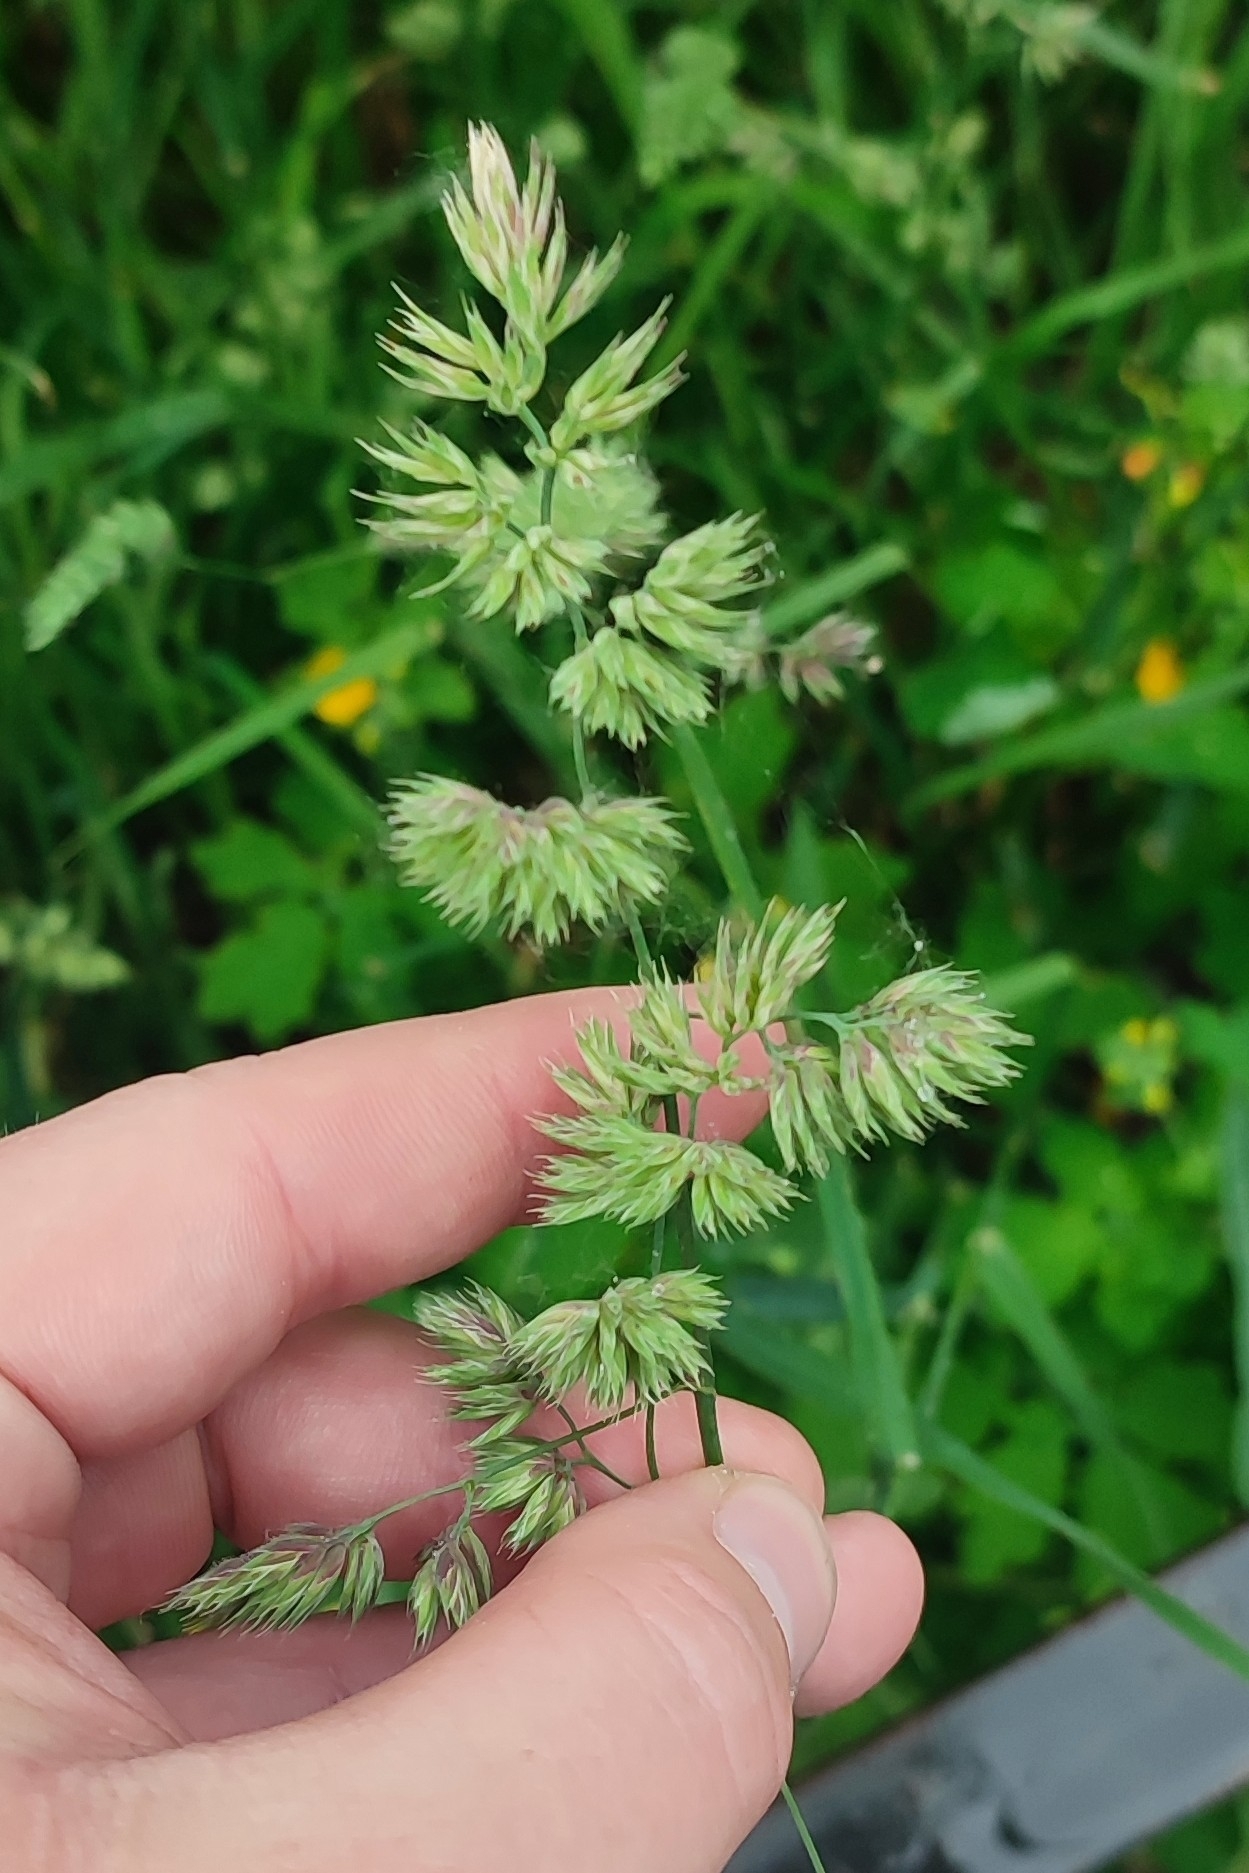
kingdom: Plantae
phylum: Tracheophyta
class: Liliopsida
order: Poales
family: Poaceae
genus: Dactylis
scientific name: Dactylis glomerata
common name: Orchardgrass
